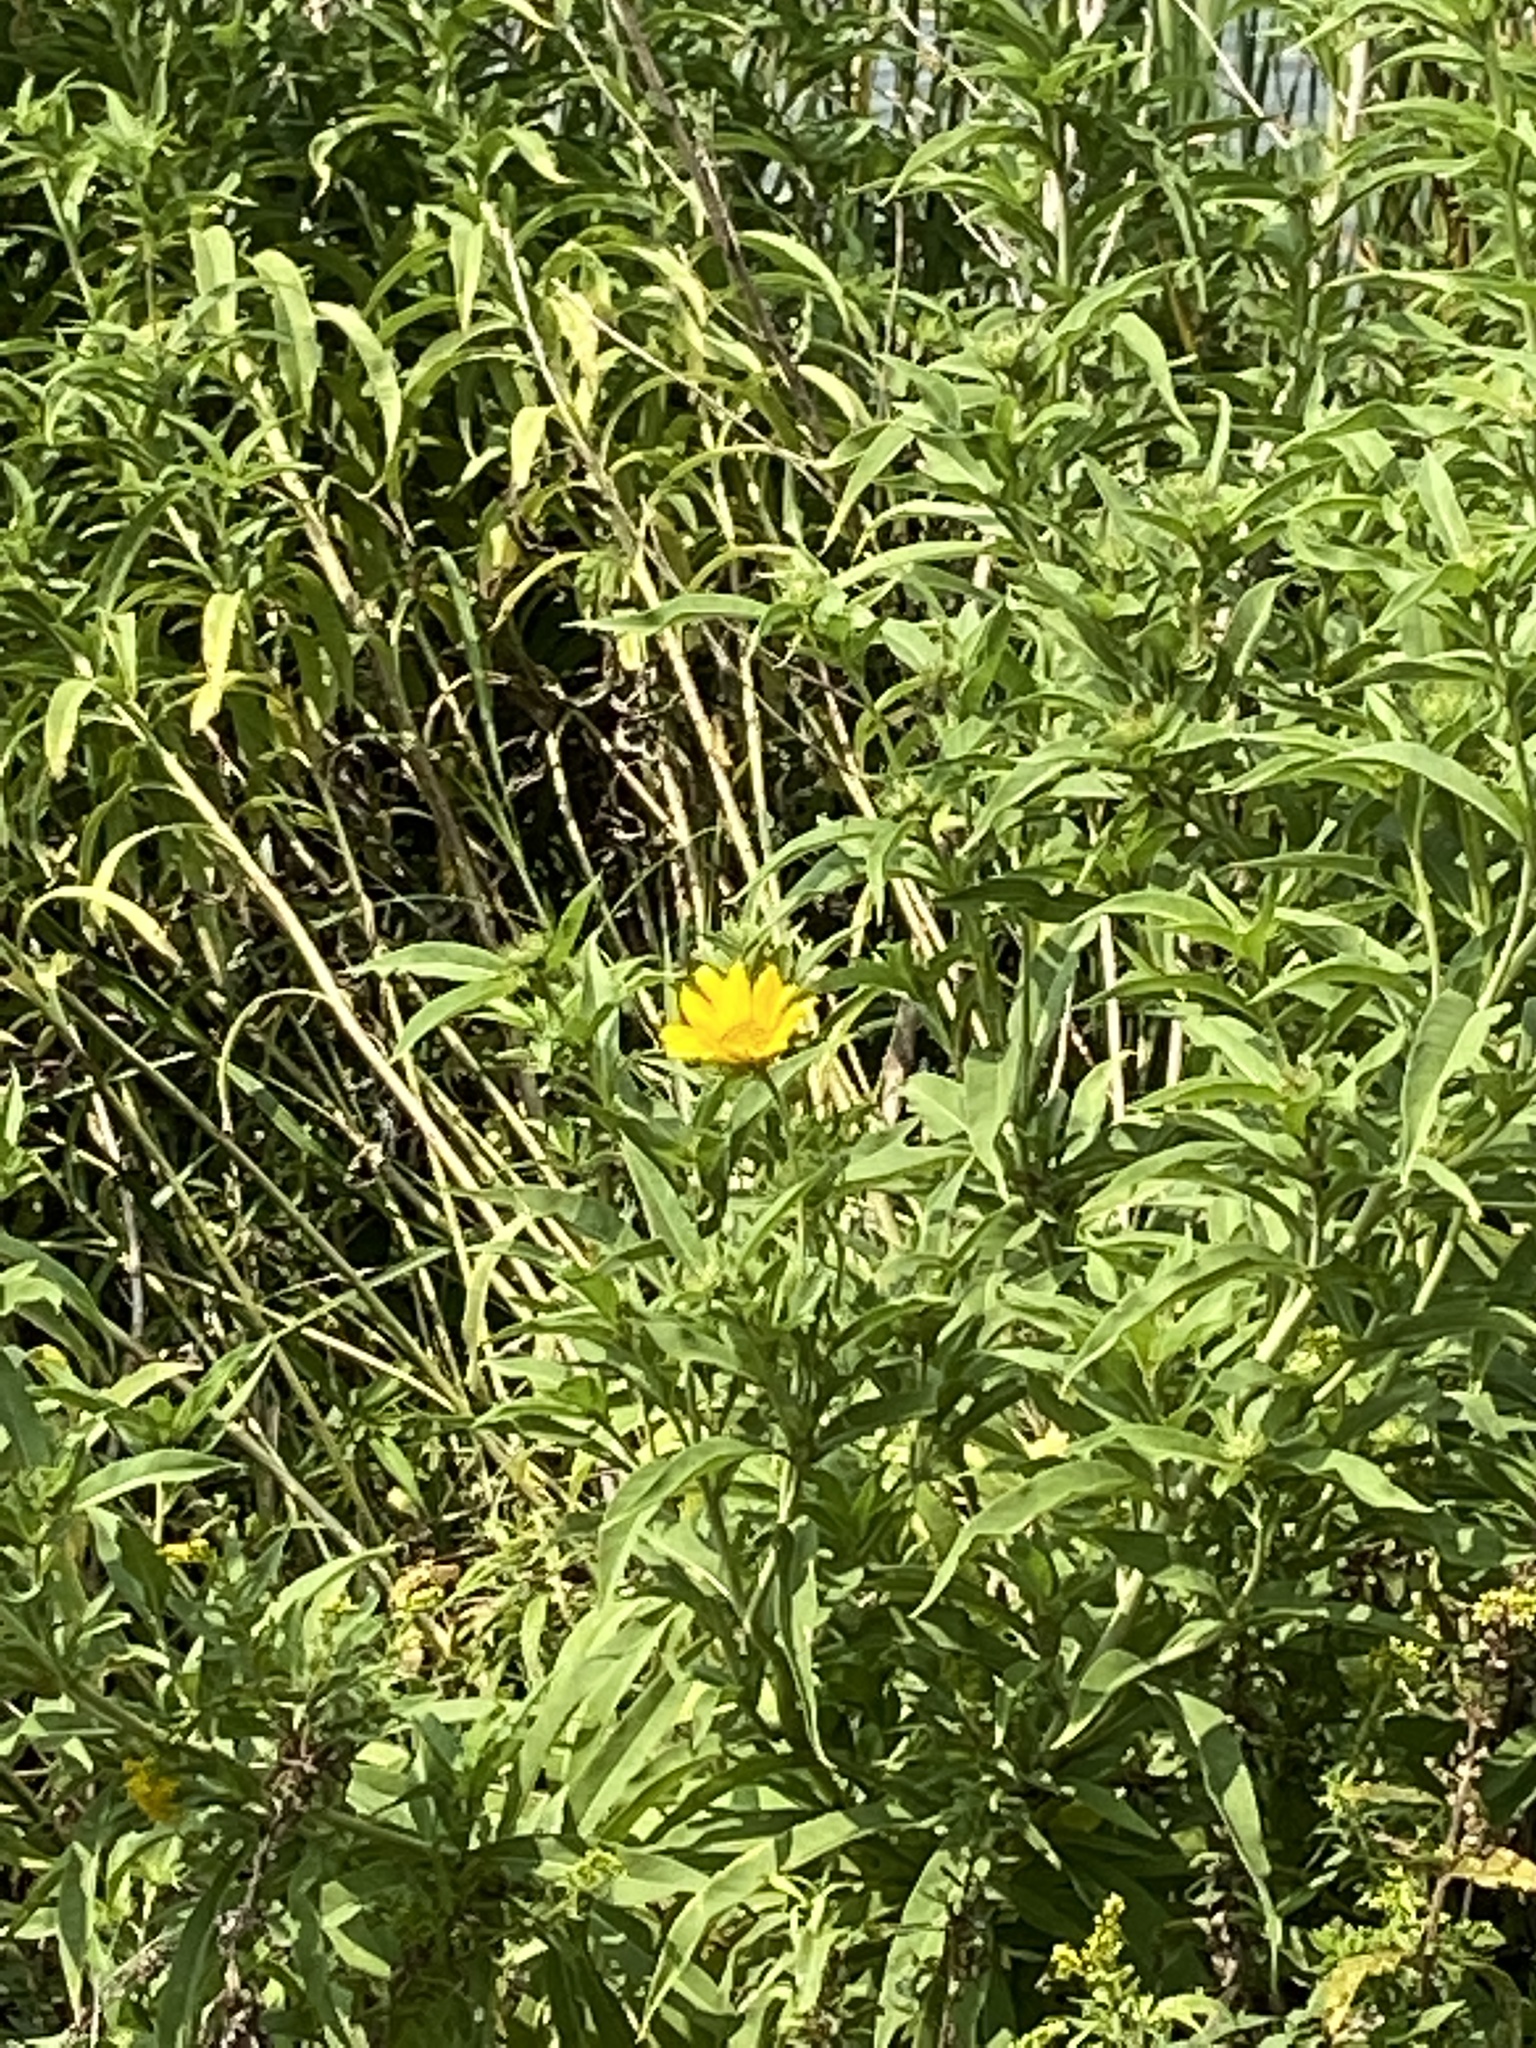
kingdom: Plantae
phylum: Tracheophyta
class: Magnoliopsida
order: Asterales
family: Asteraceae
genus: Helianthus
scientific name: Helianthus maximiliani
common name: Maximilian's sunflower
